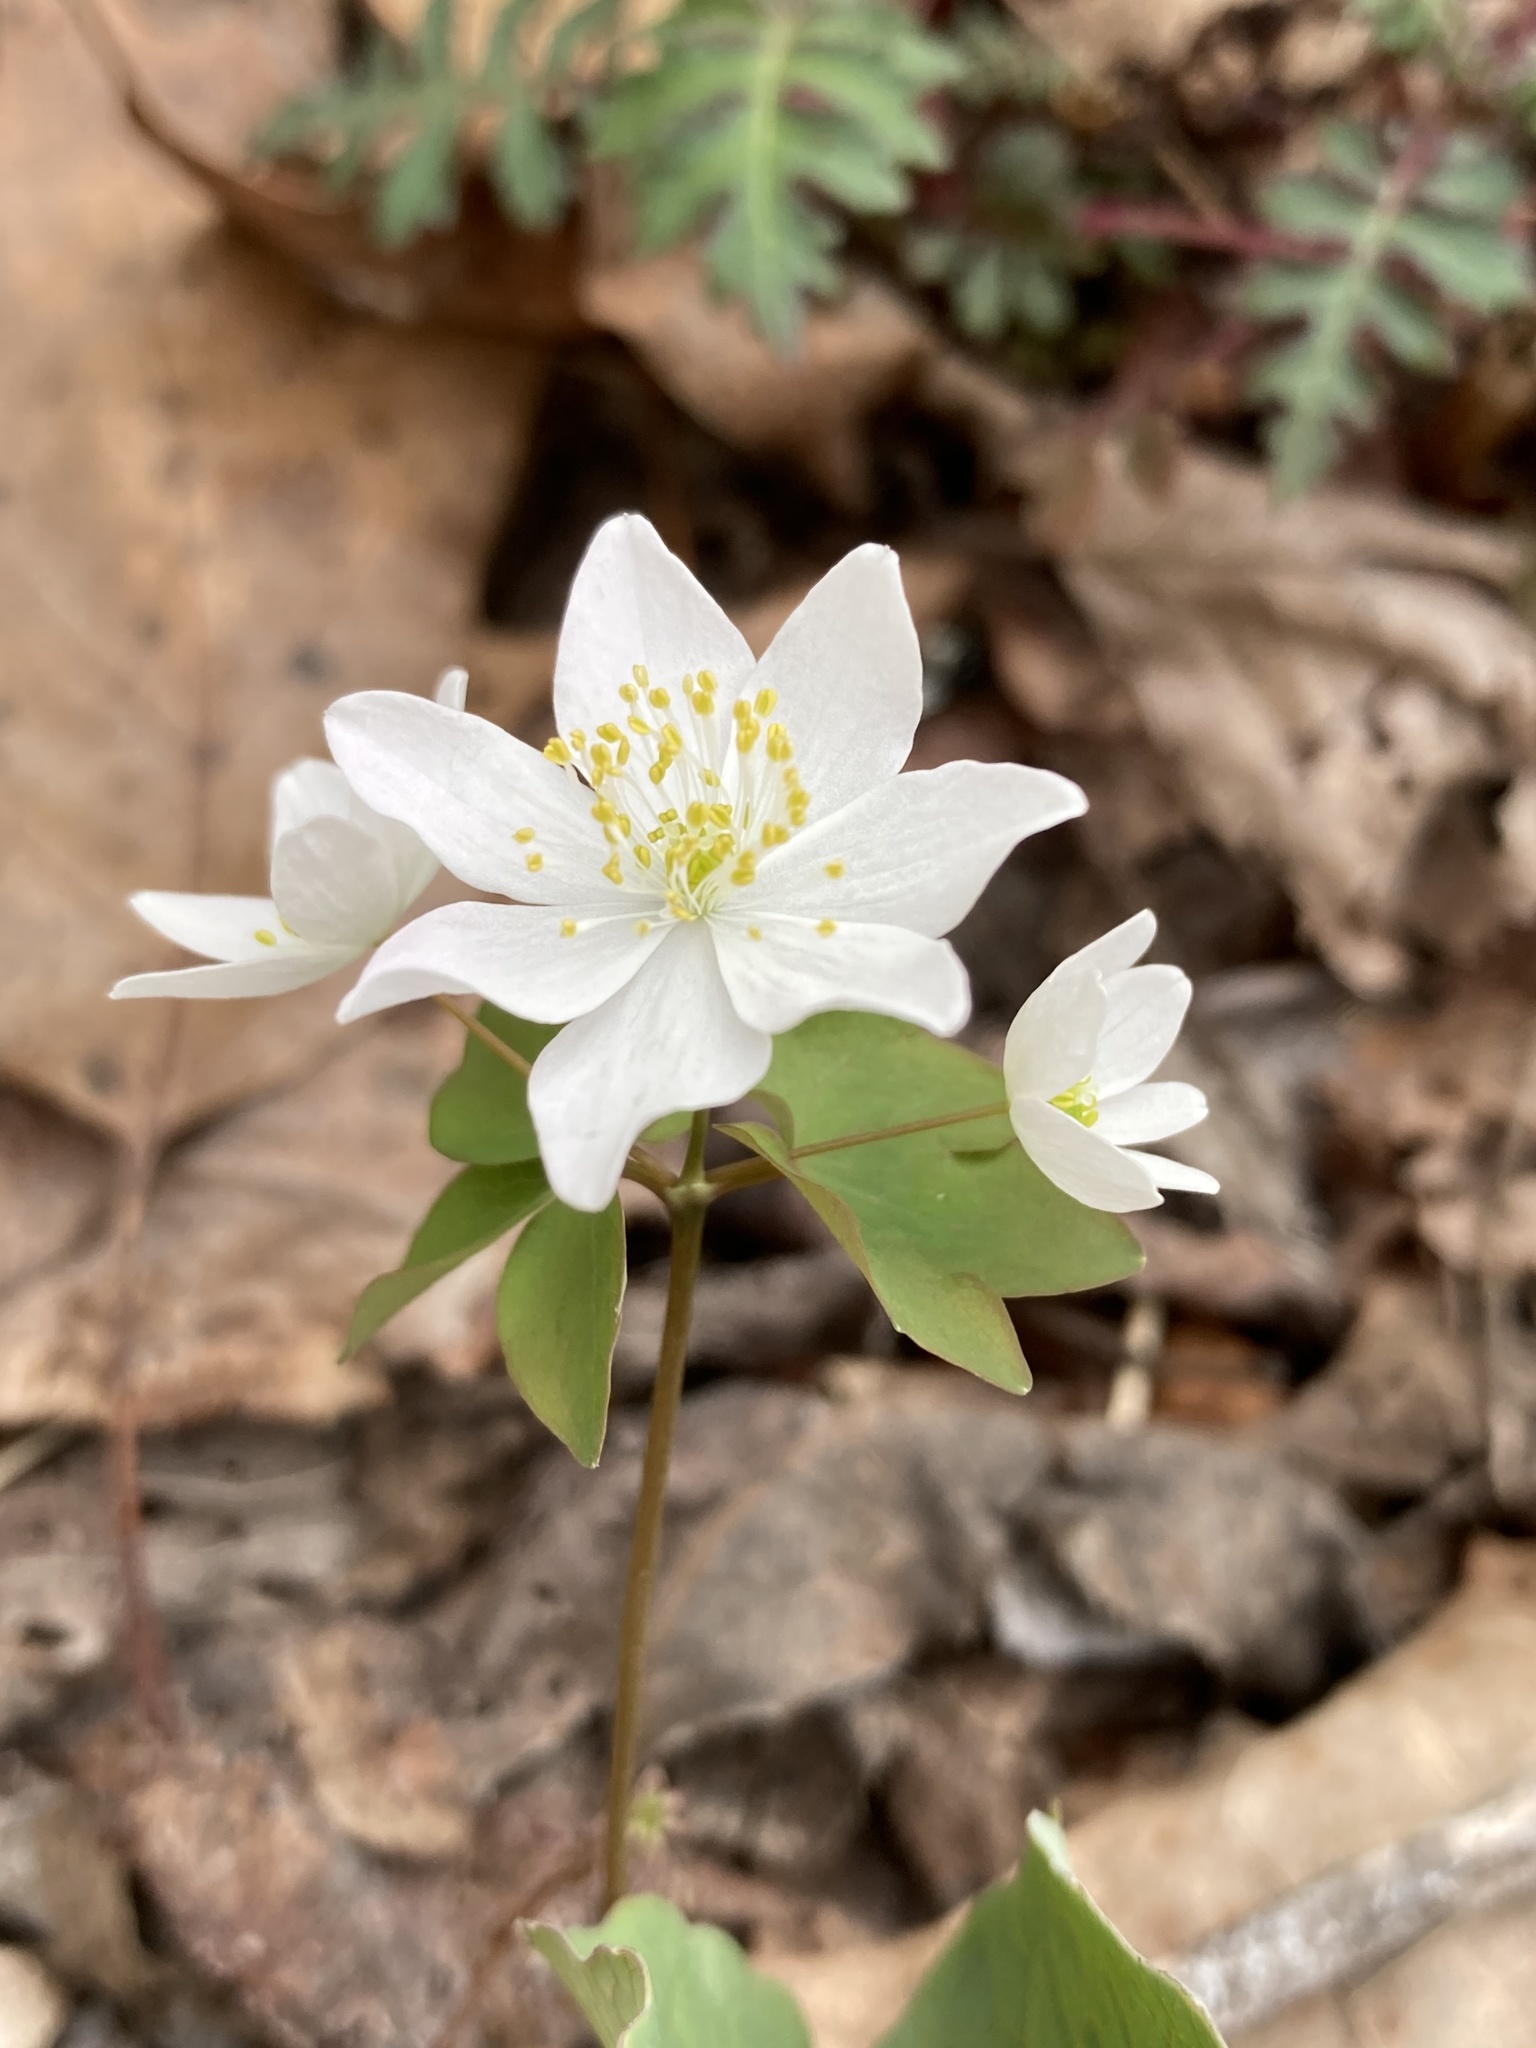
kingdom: Plantae
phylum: Tracheophyta
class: Magnoliopsida
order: Ranunculales
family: Ranunculaceae
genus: Thalictrum
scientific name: Thalictrum thalictroides
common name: Rue-anemone
